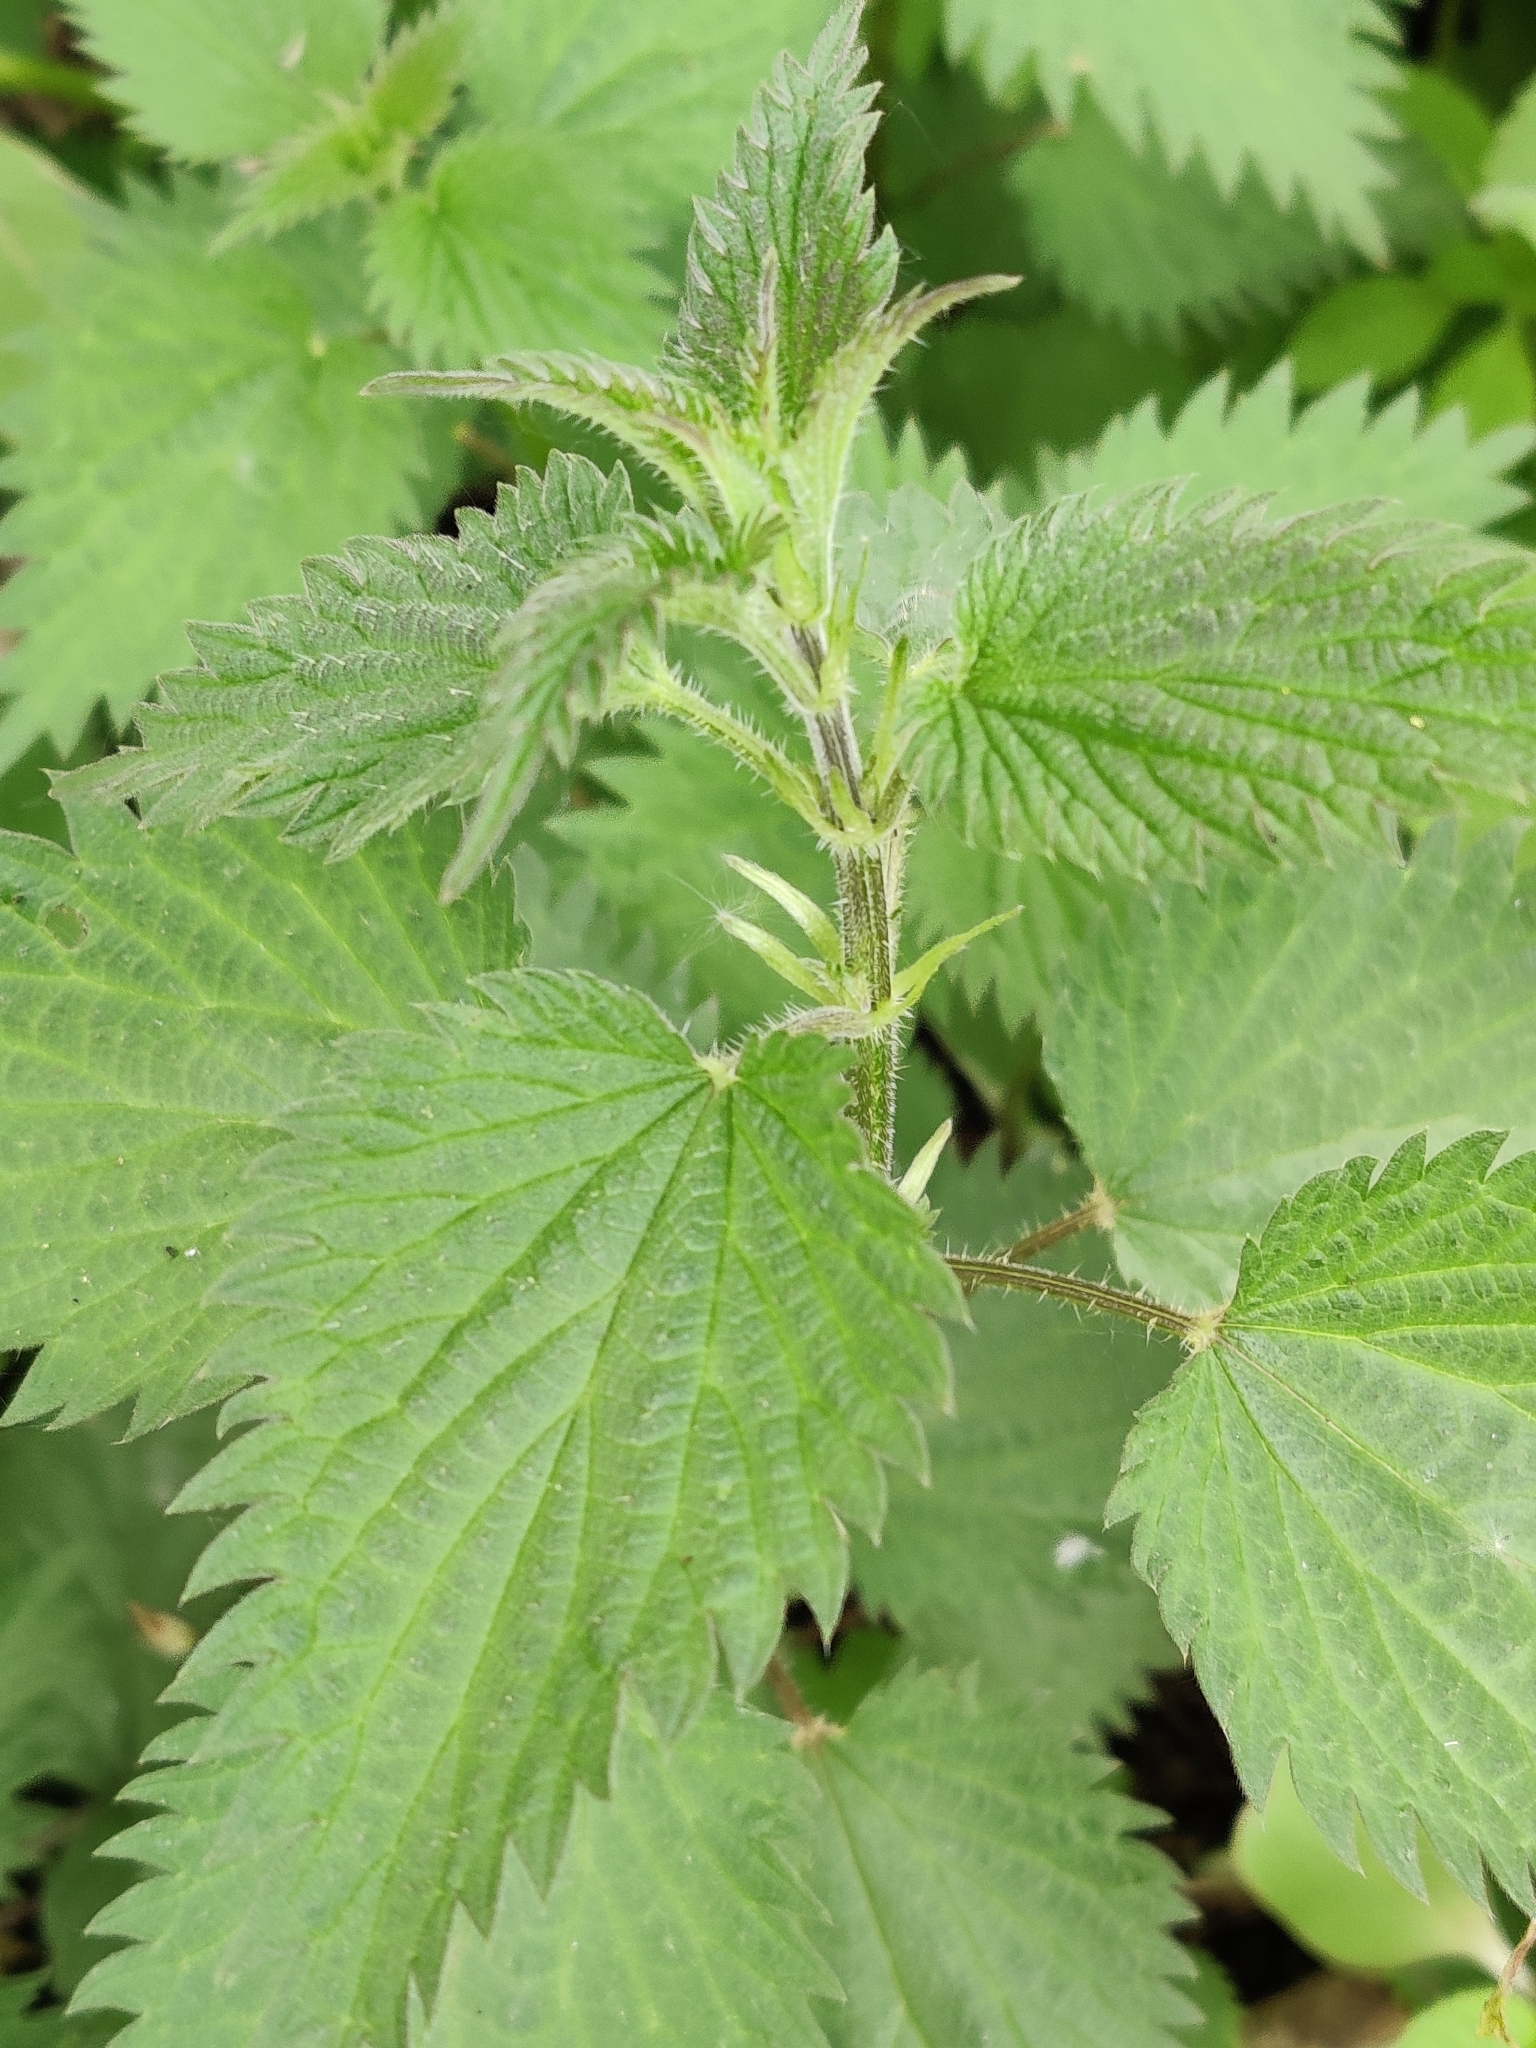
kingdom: Plantae
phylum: Tracheophyta
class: Magnoliopsida
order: Rosales
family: Urticaceae
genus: Urtica
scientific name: Urtica dioica
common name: Common nettle
